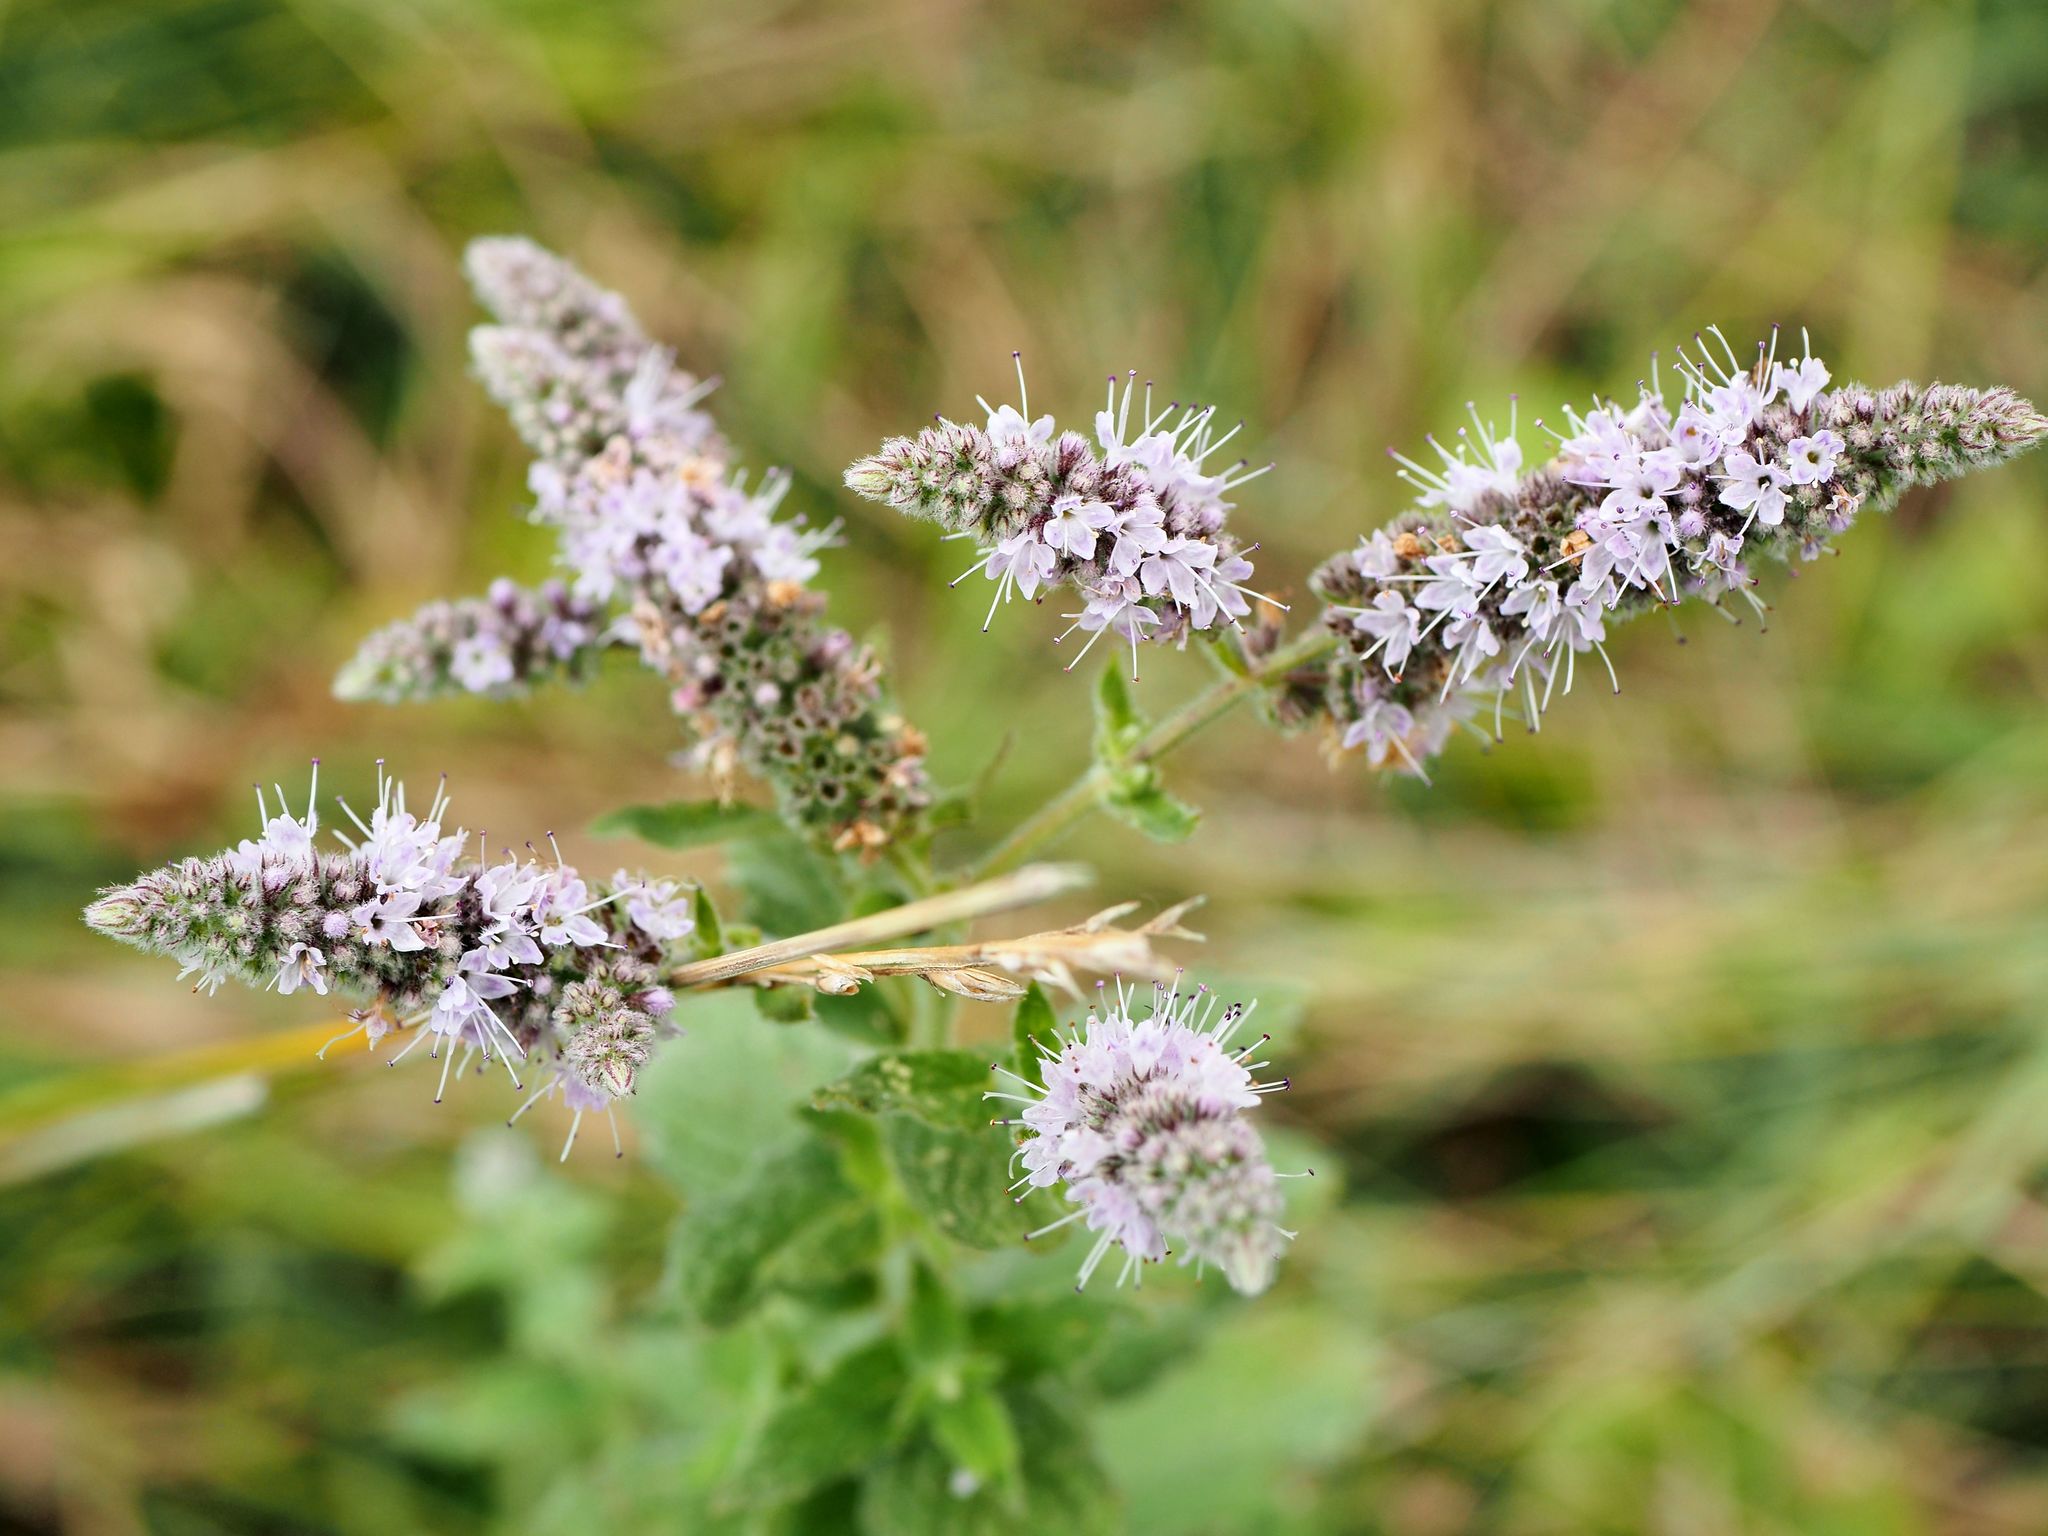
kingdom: Plantae
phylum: Tracheophyta
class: Magnoliopsida
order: Lamiales
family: Lamiaceae
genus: Mentha
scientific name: Mentha longifolia
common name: Horse mint
